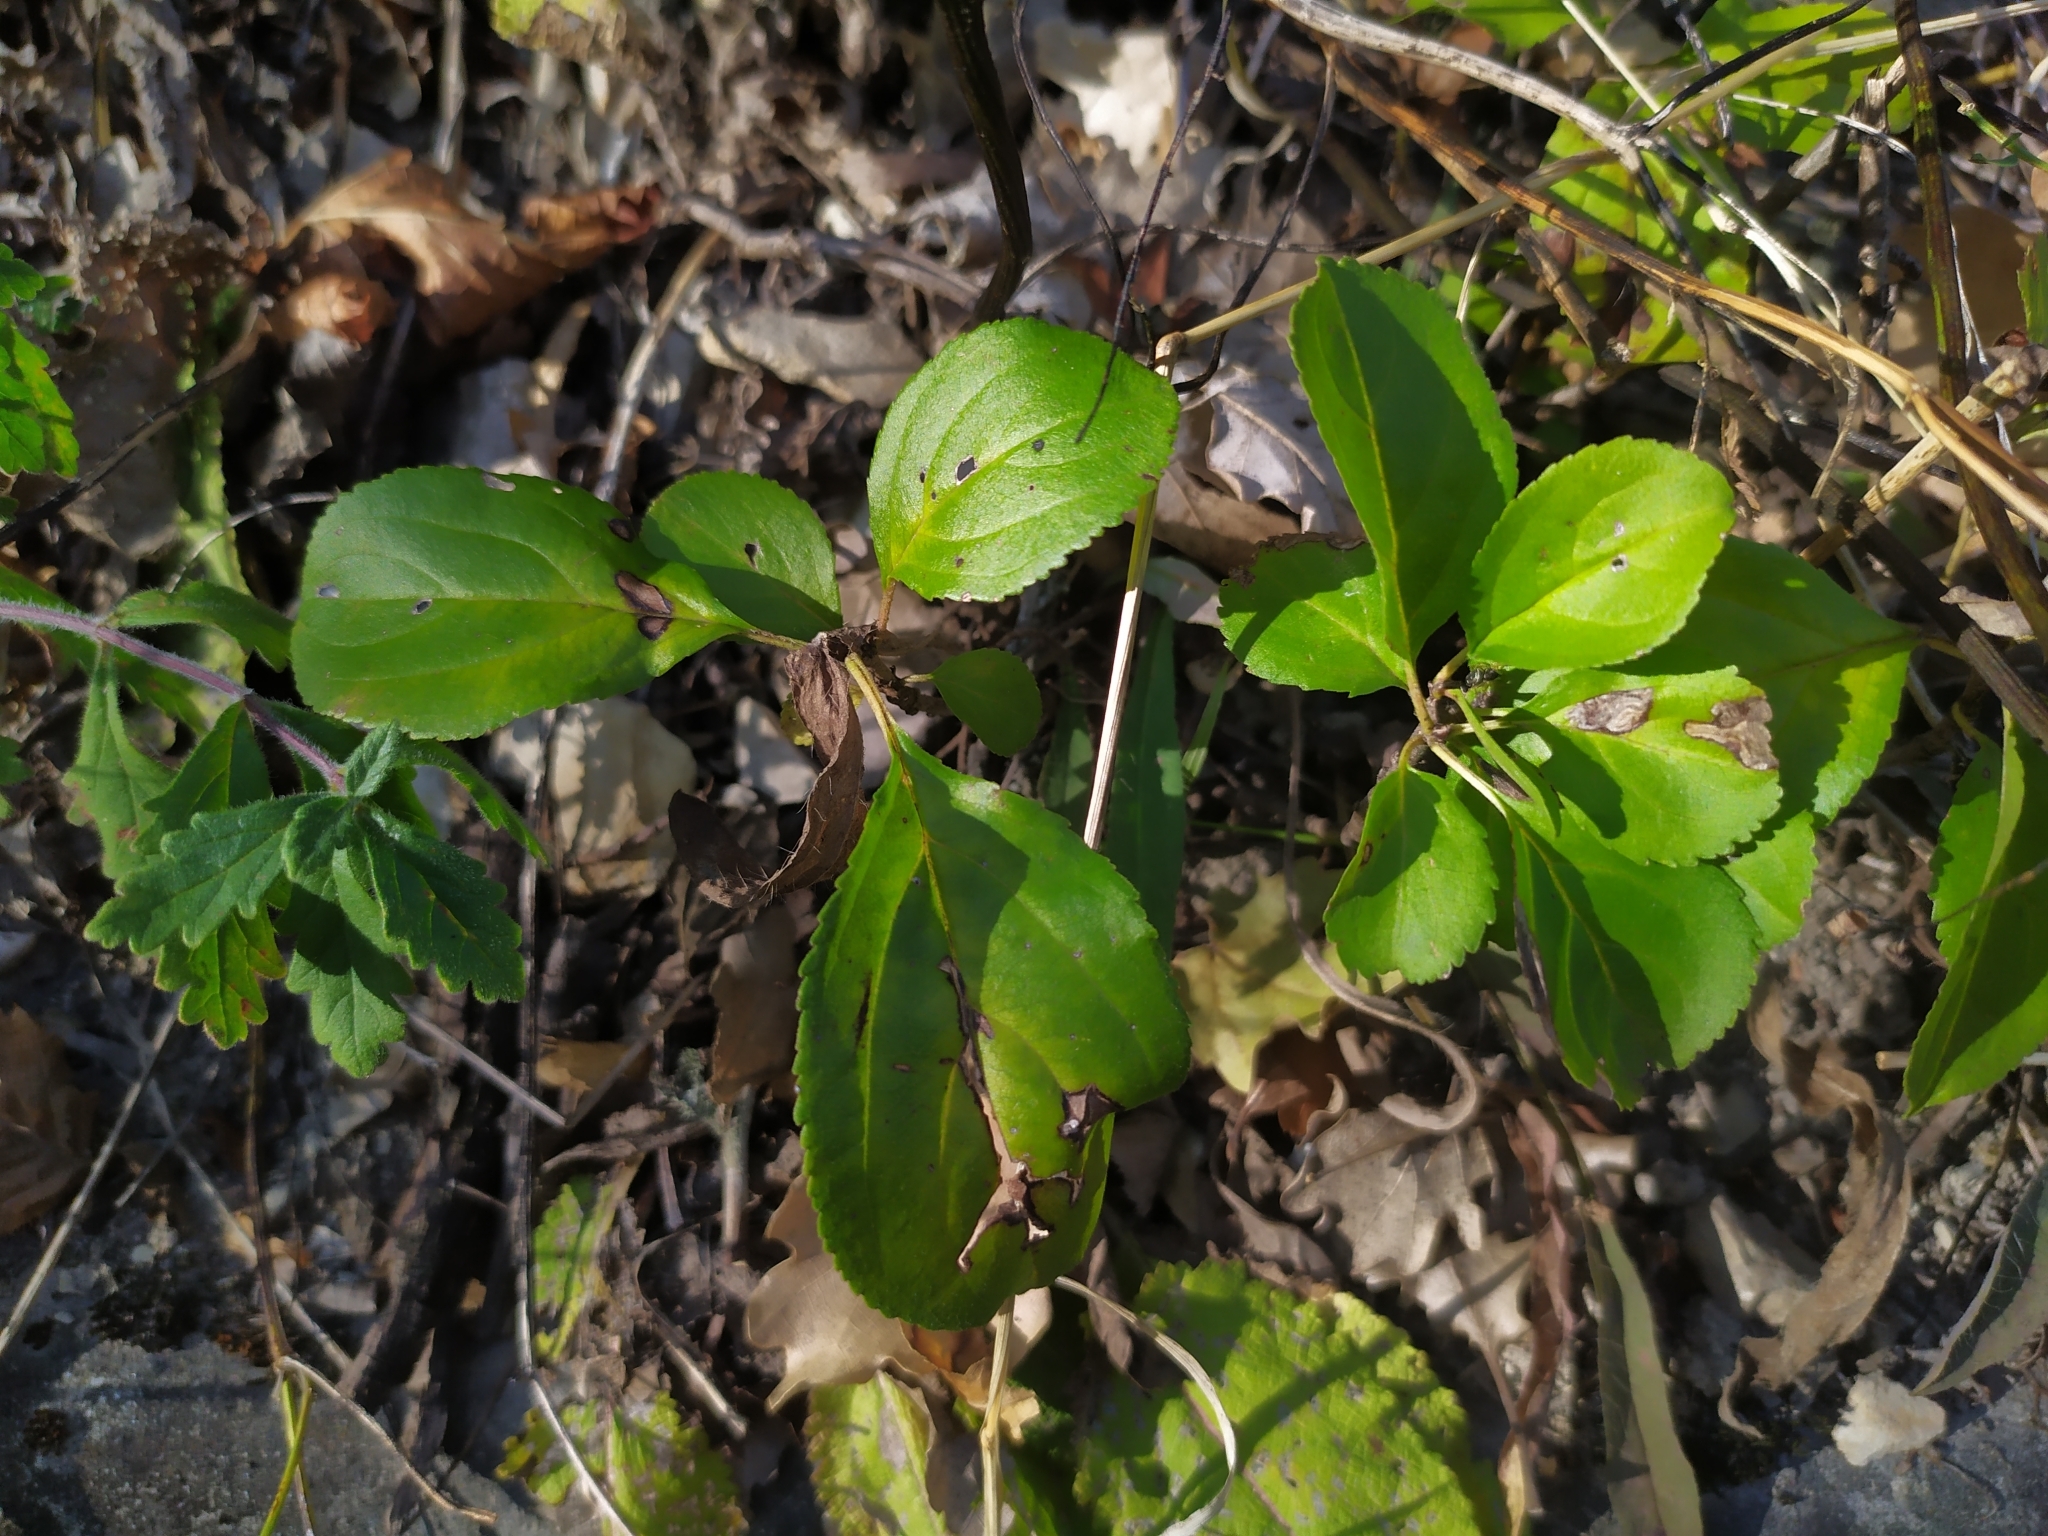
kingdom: Plantae
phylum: Tracheophyta
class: Magnoliopsida
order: Rosales
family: Rhamnaceae
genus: Rhamnus
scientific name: Rhamnus cathartica
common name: Common buckthorn
